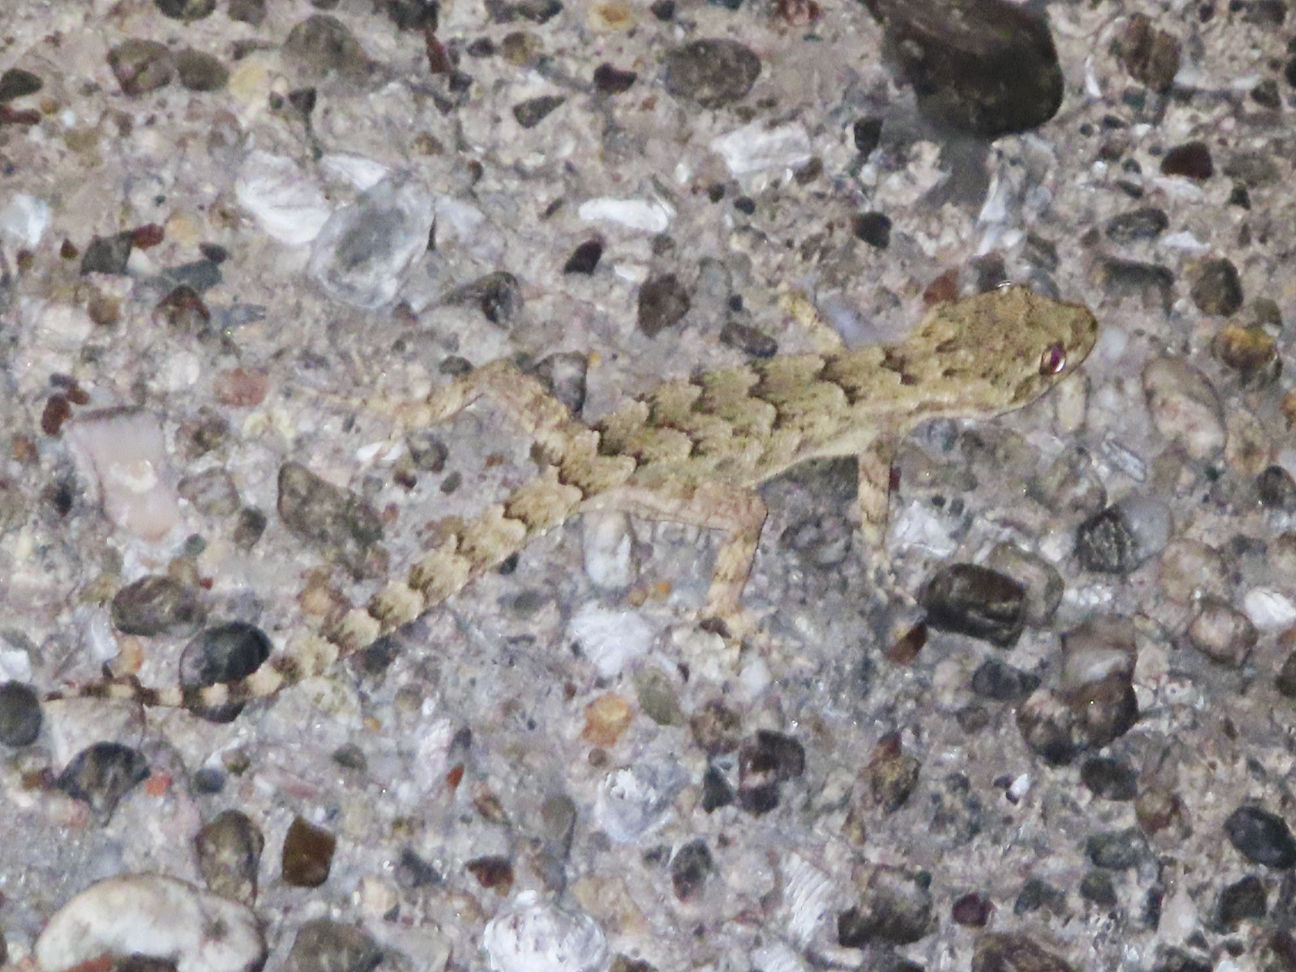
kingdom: Animalia
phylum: Chordata
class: Squamata
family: Gekkonidae
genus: Mediodactylus
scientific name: Mediodactylus danilewskii
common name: Bulgarian bent-toed gecko
